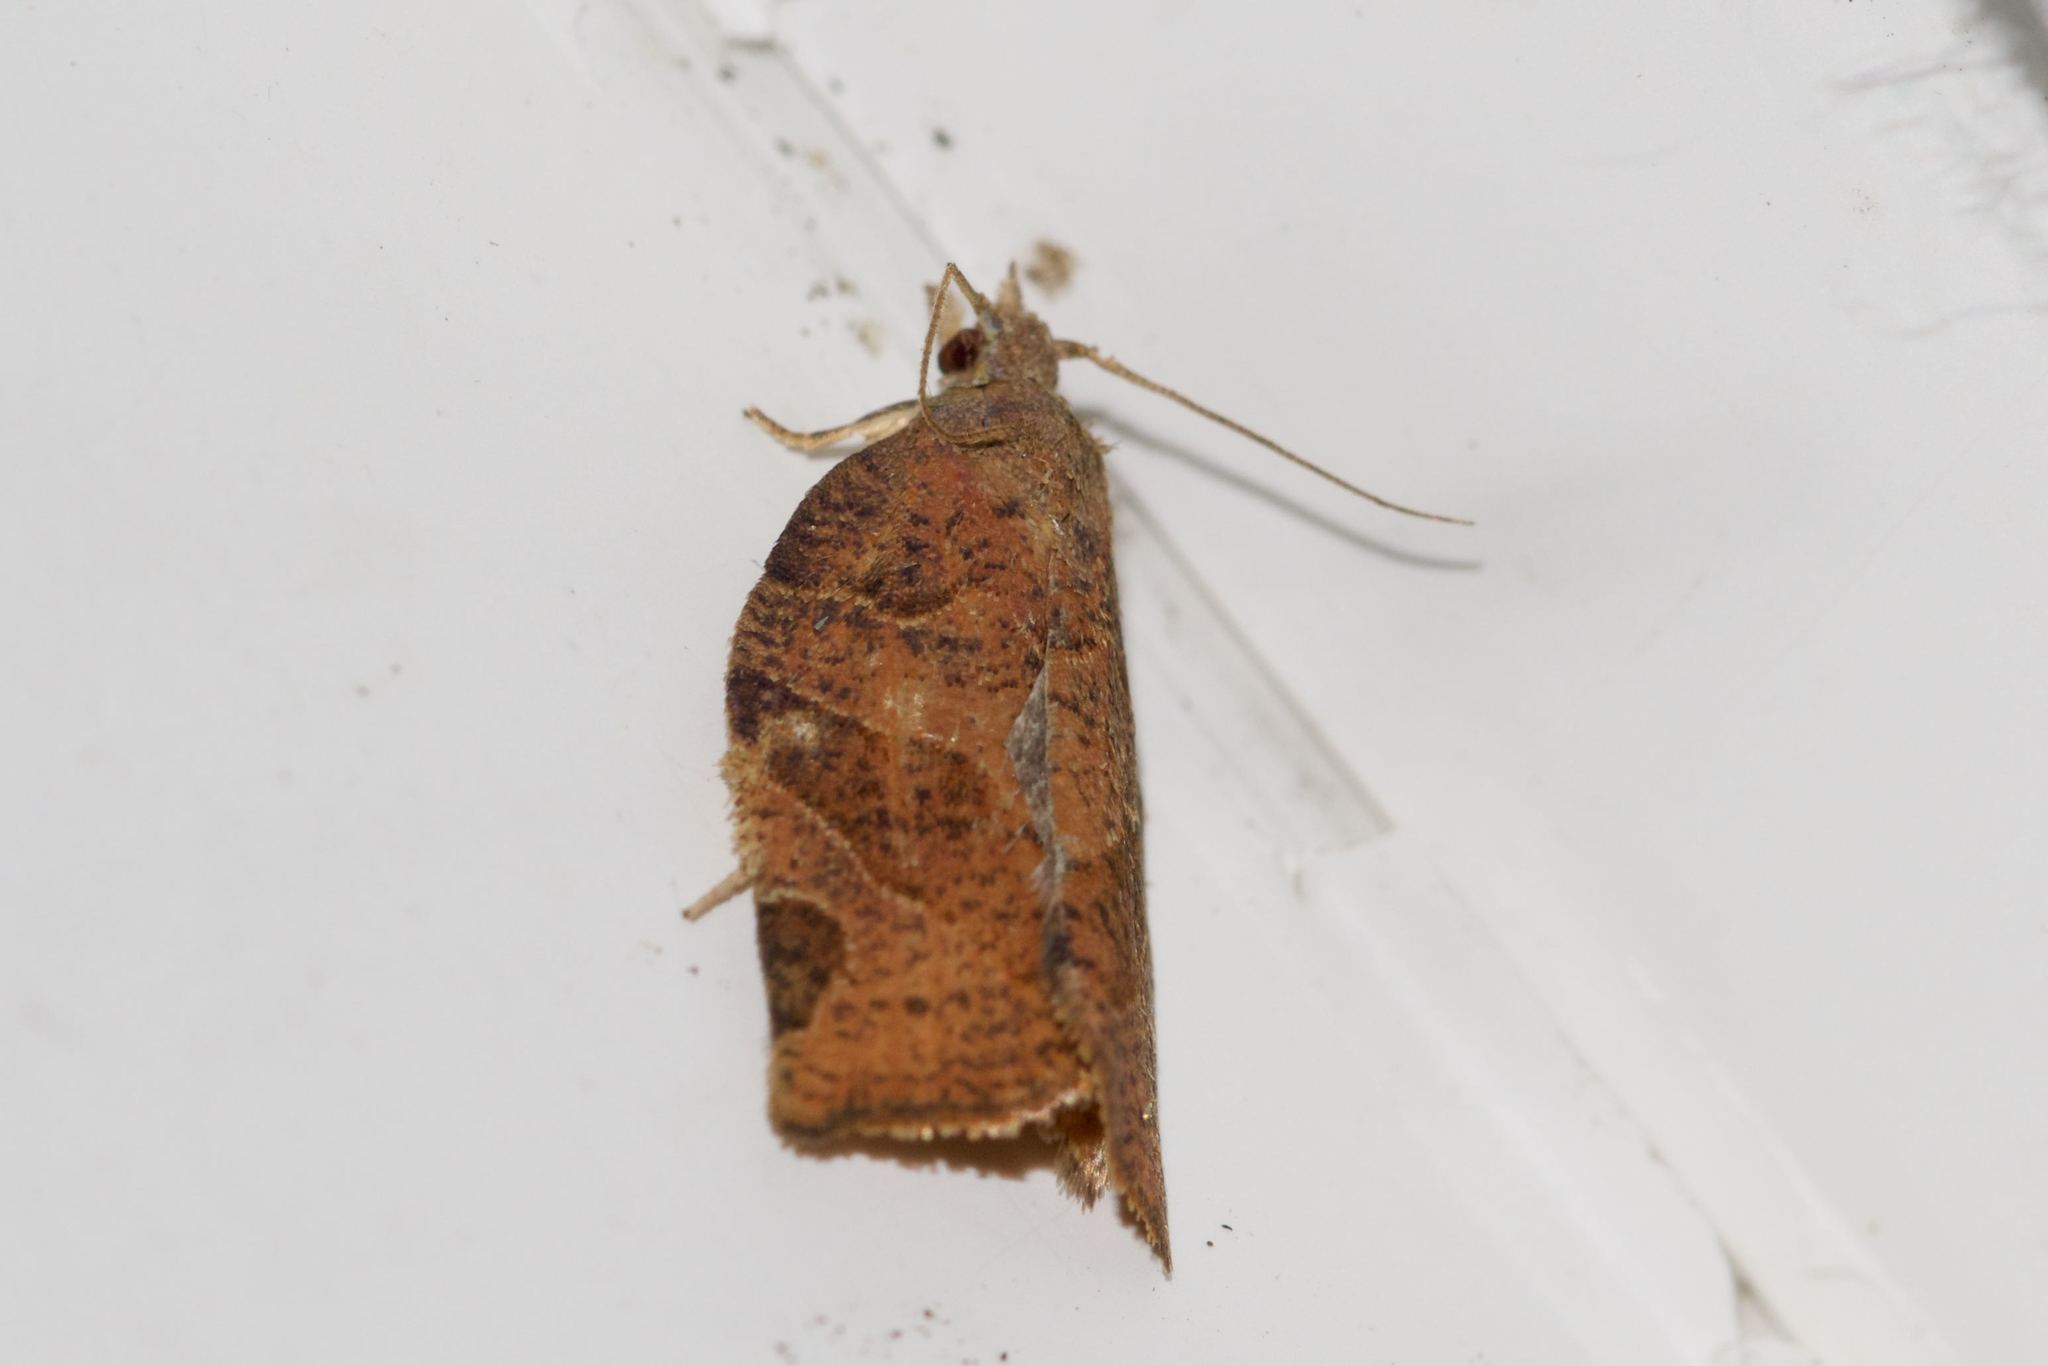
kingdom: Animalia
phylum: Arthropoda
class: Insecta
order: Lepidoptera
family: Tortricidae
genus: Pandemis
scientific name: Pandemis canadana
